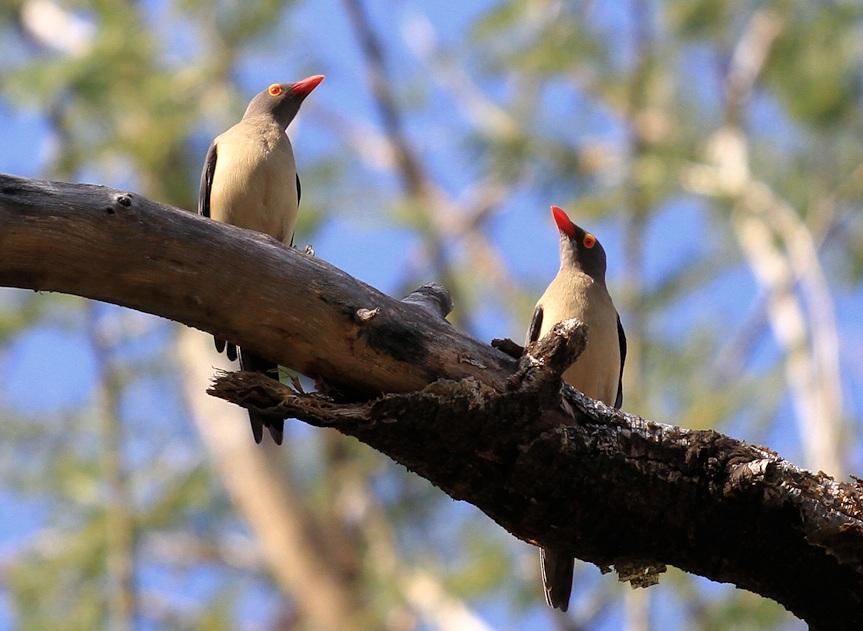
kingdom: Animalia
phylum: Chordata
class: Aves
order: Passeriformes
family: Buphagidae
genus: Buphagus
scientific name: Buphagus erythrorhynchus
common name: Red-billed oxpecker
